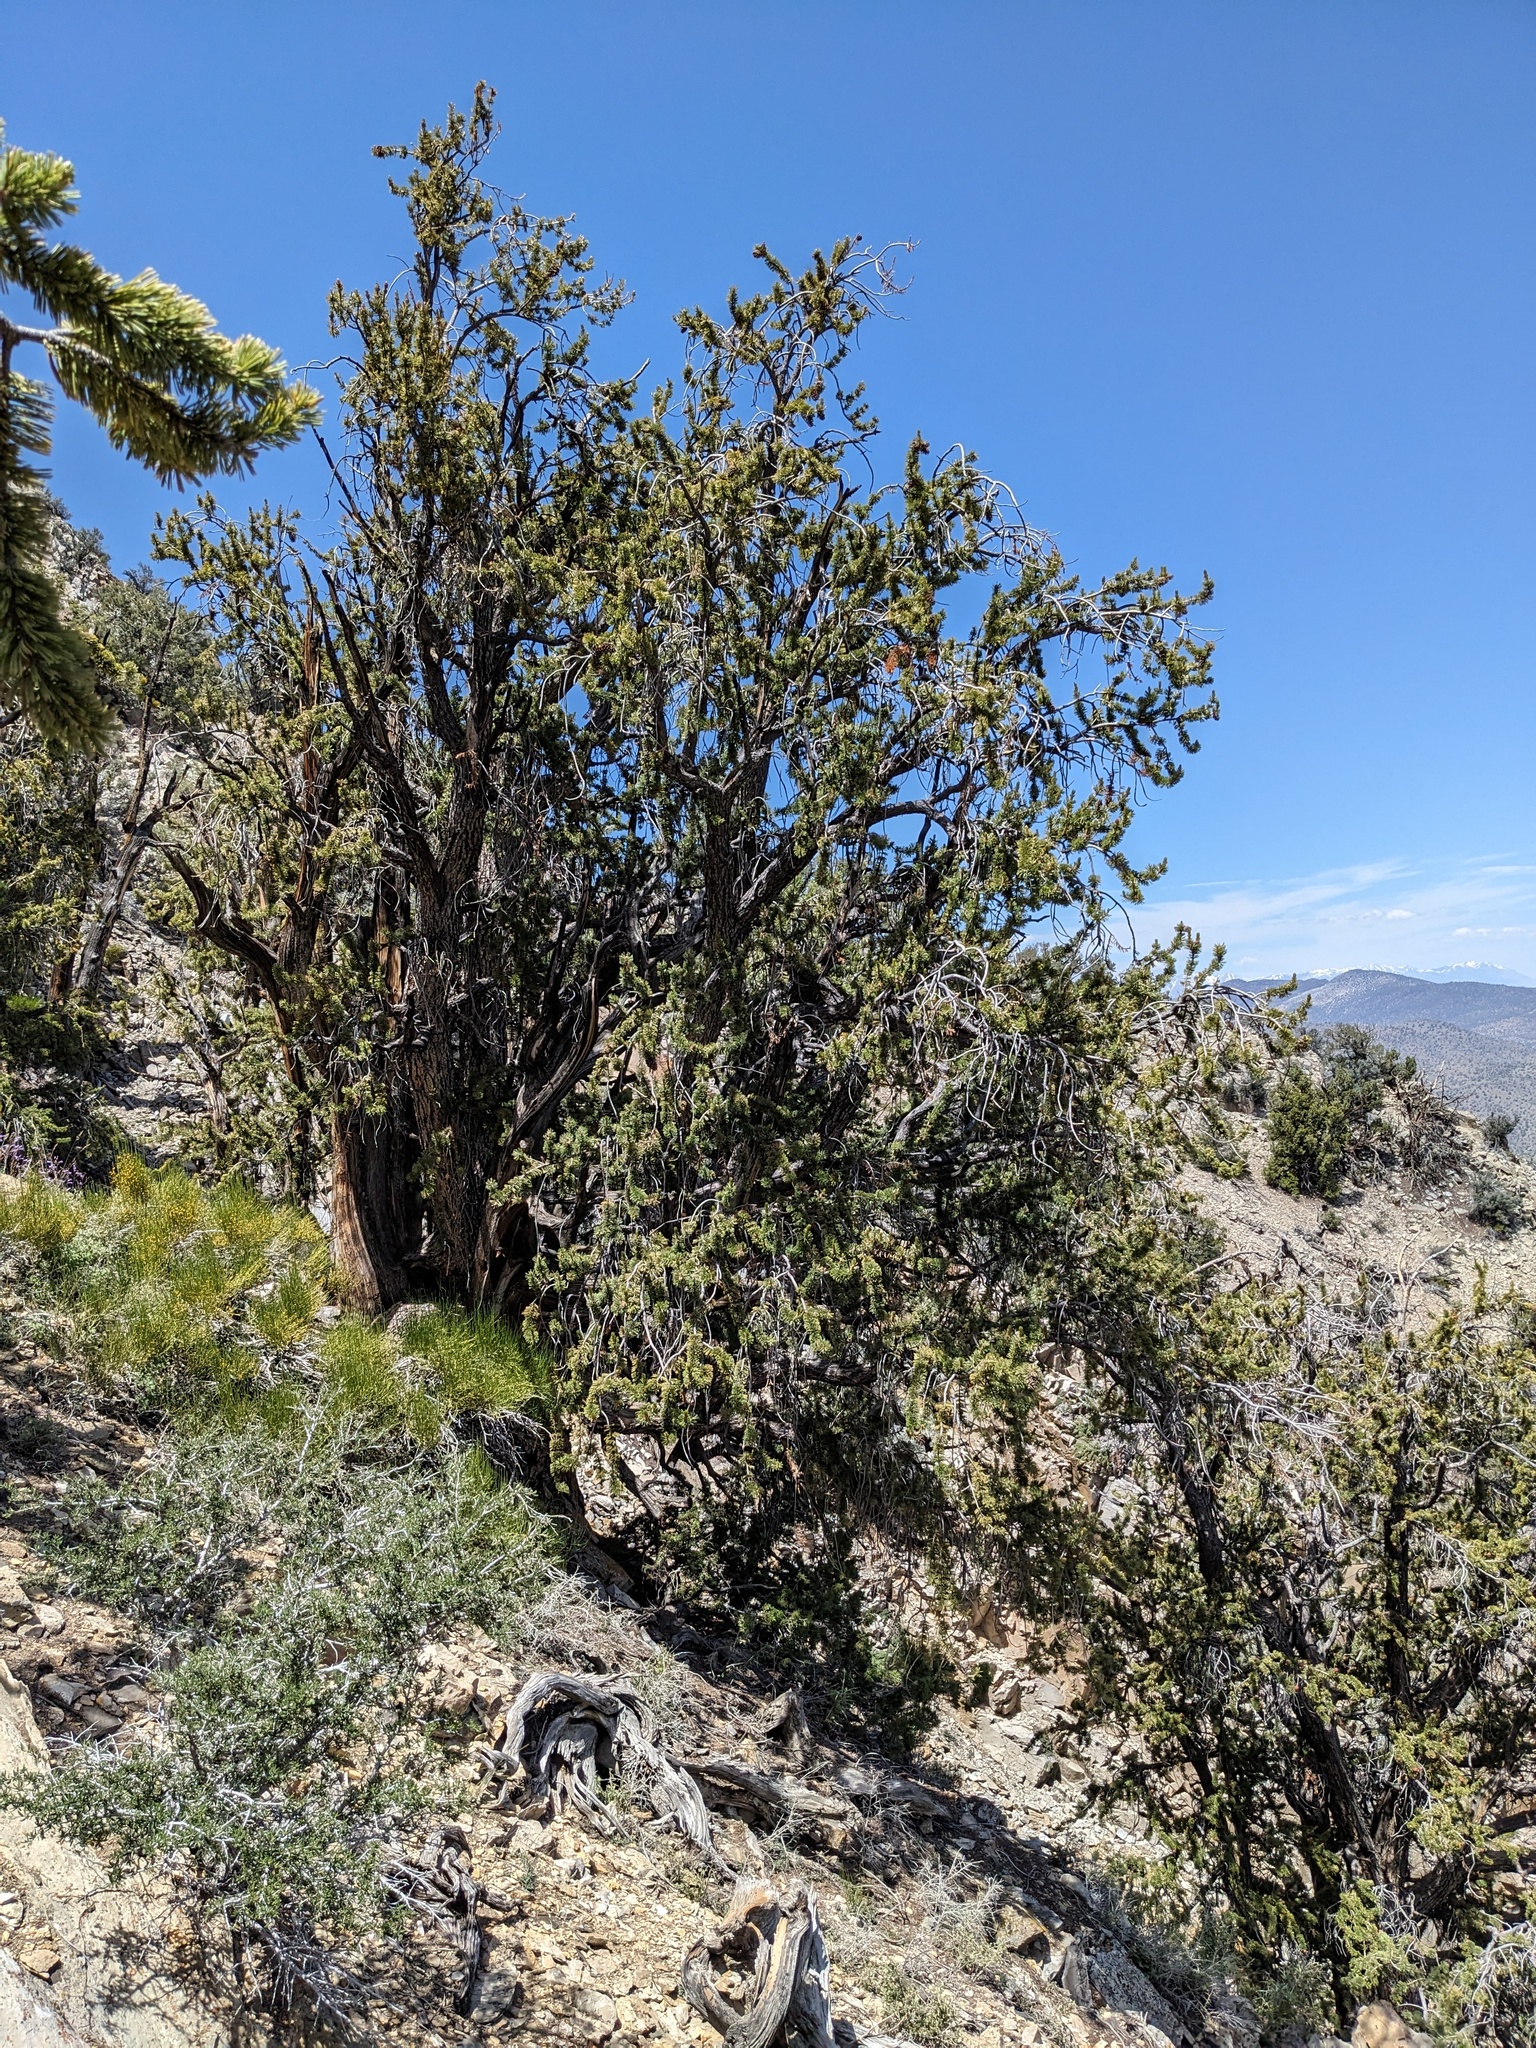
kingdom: Plantae
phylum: Tracheophyta
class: Pinopsida
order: Pinales
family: Pinaceae
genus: Pinus
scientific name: Pinus longaeva
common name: Intermountain bristlecone pine
